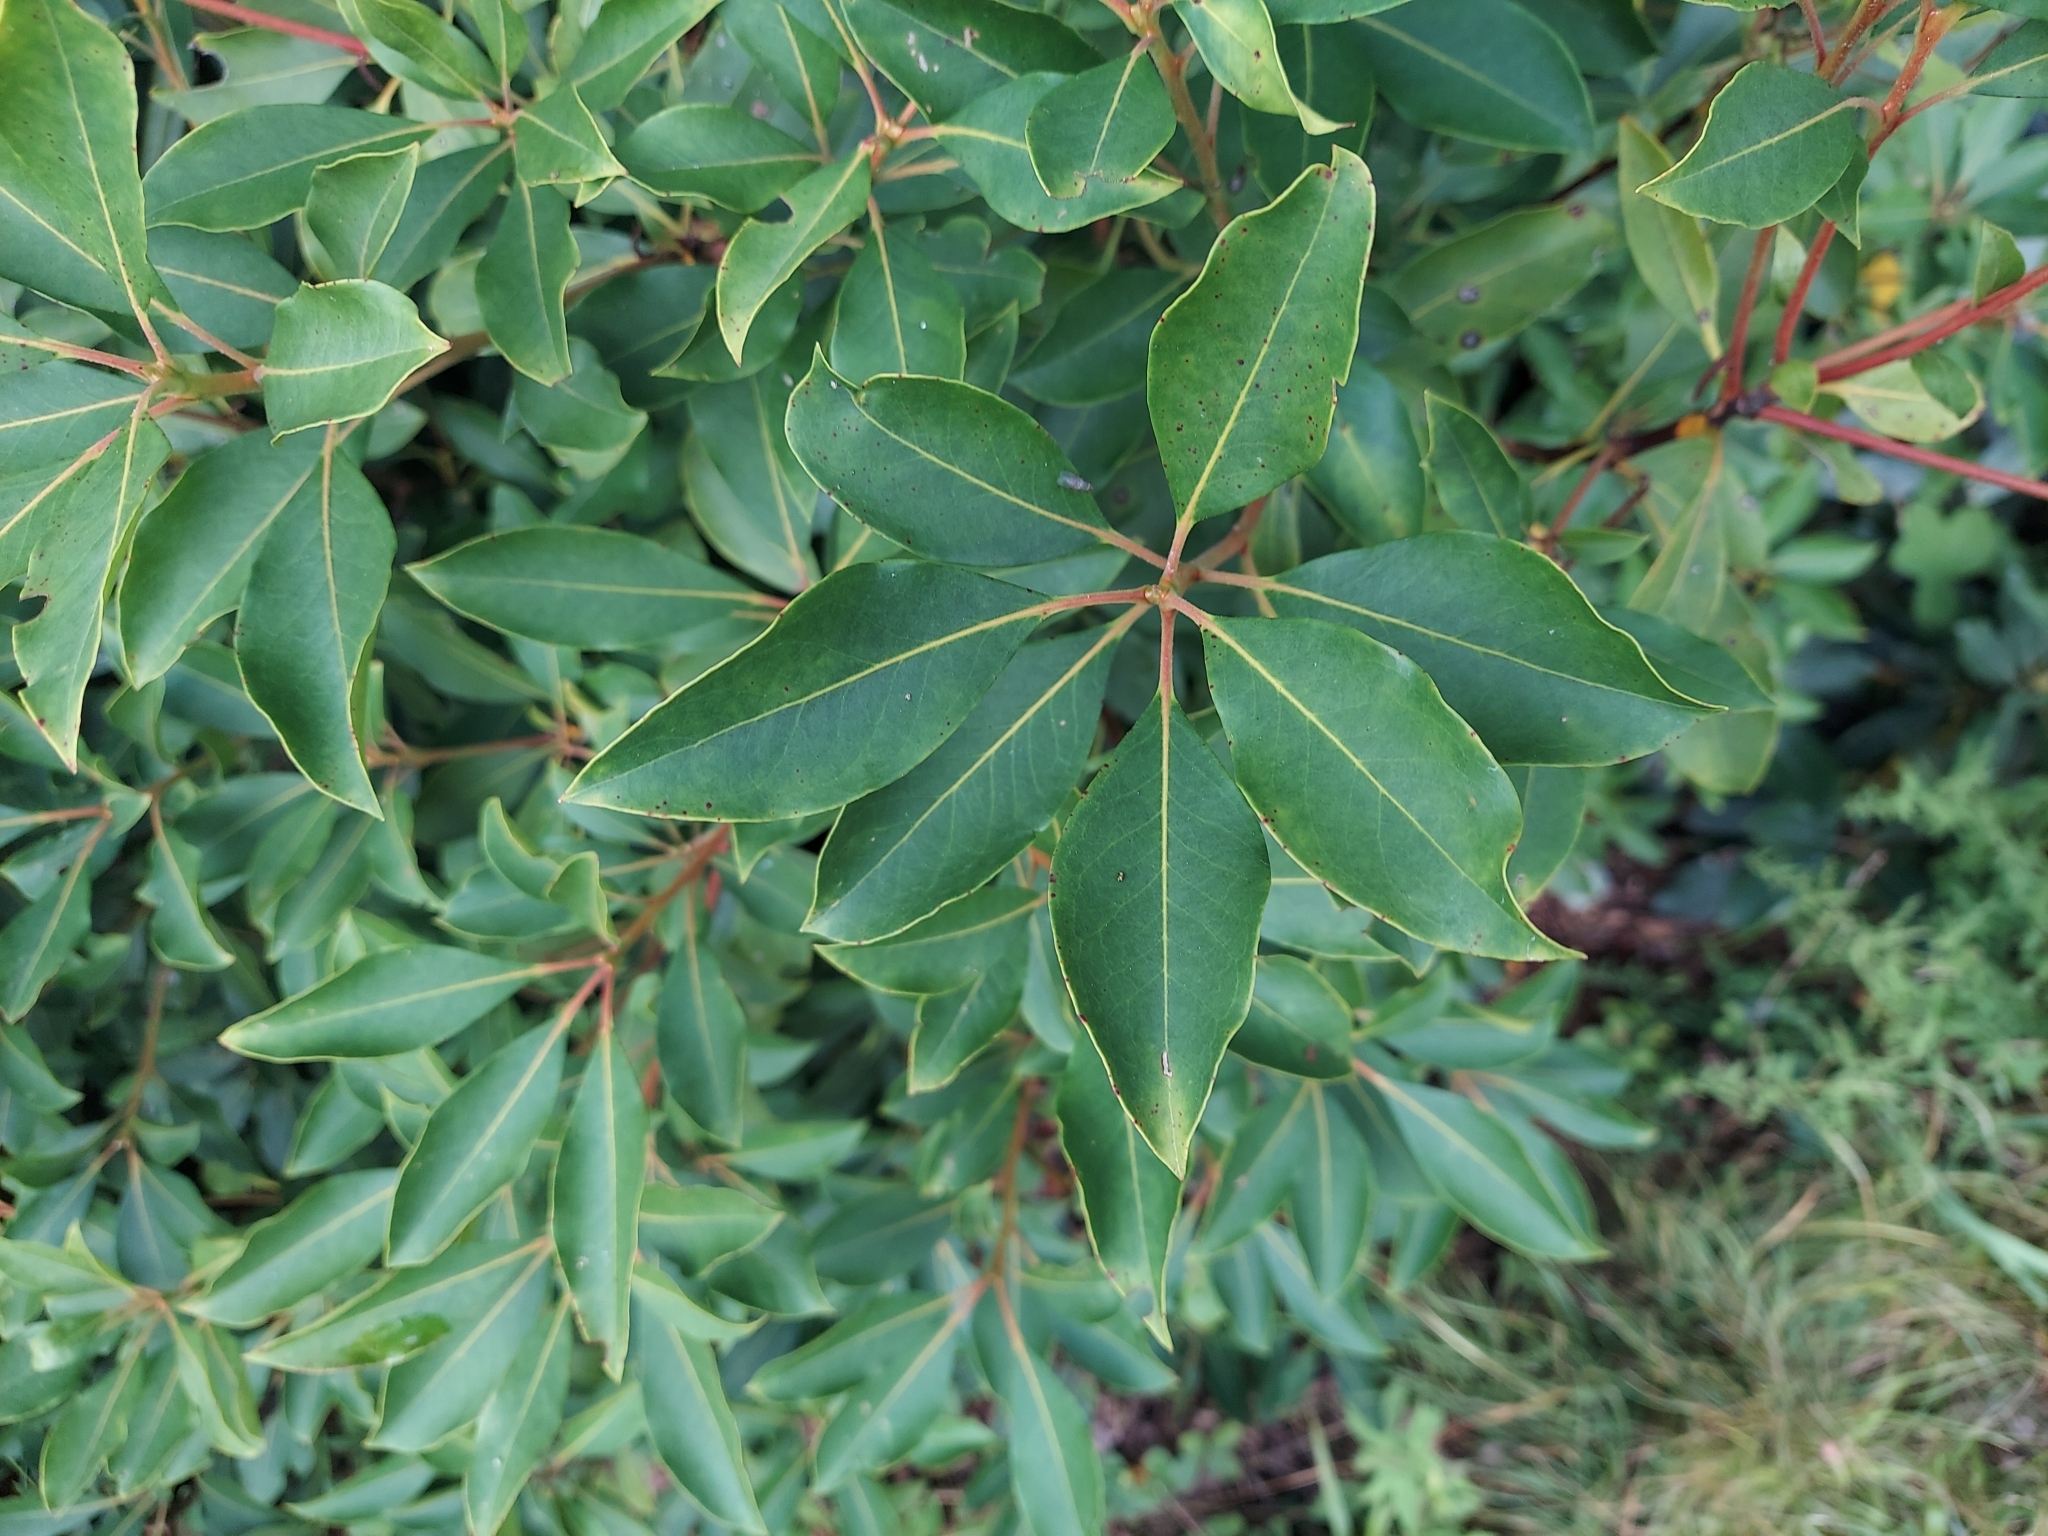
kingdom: Plantae
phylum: Tracheophyta
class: Magnoliopsida
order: Ericales
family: Ericaceae
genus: Kalmia
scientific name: Kalmia latifolia
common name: Mountain-laurel
